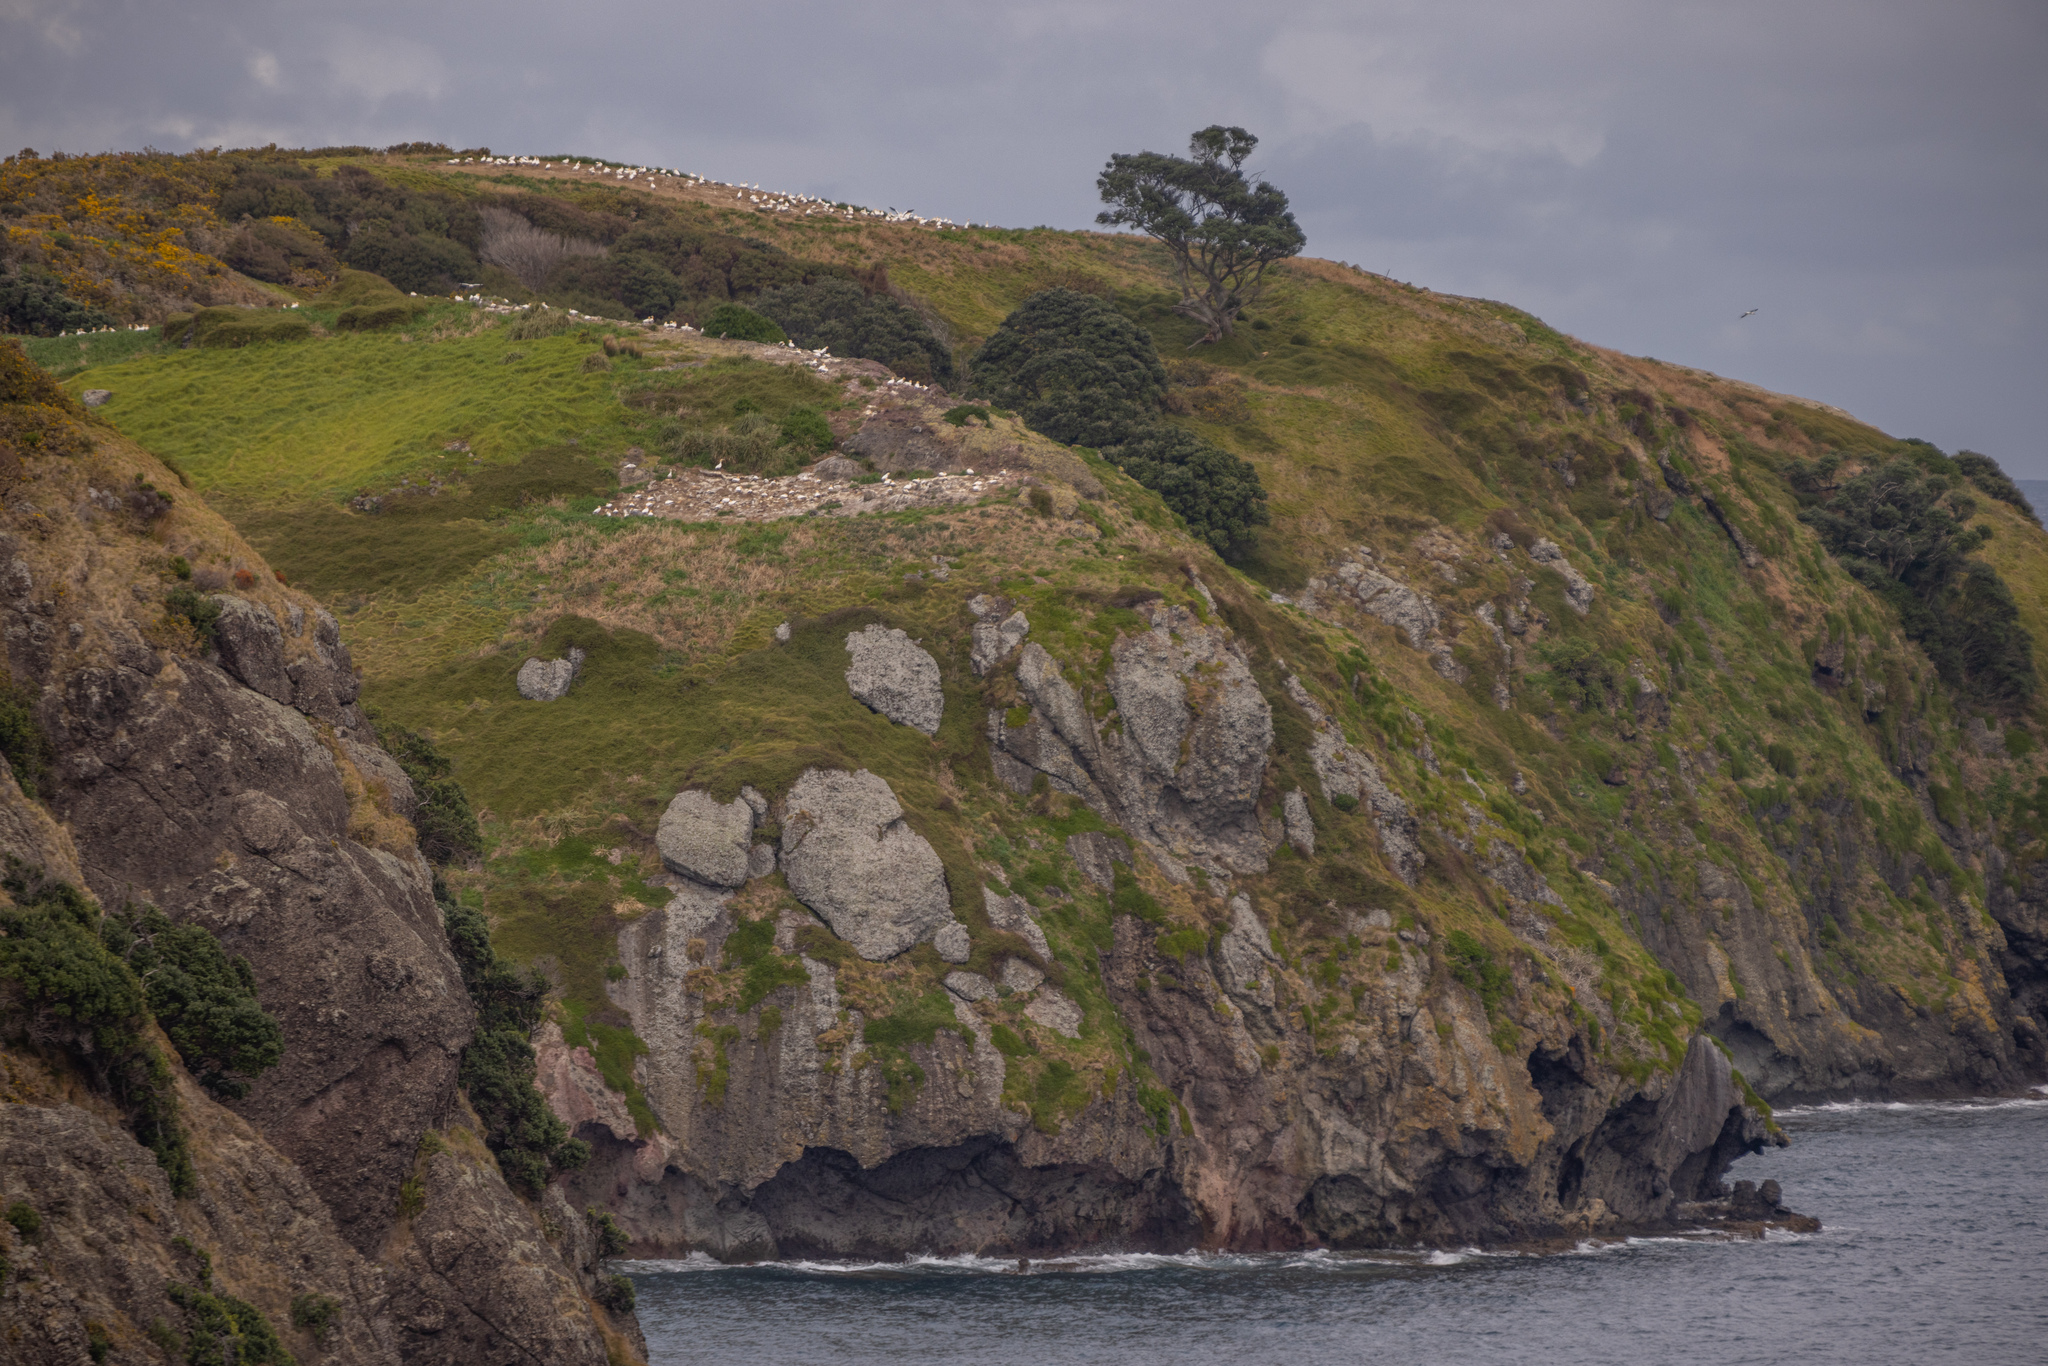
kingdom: Animalia
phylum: Chordata
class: Aves
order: Suliformes
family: Sulidae
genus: Morus
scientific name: Morus serrator
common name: Australasian gannet
